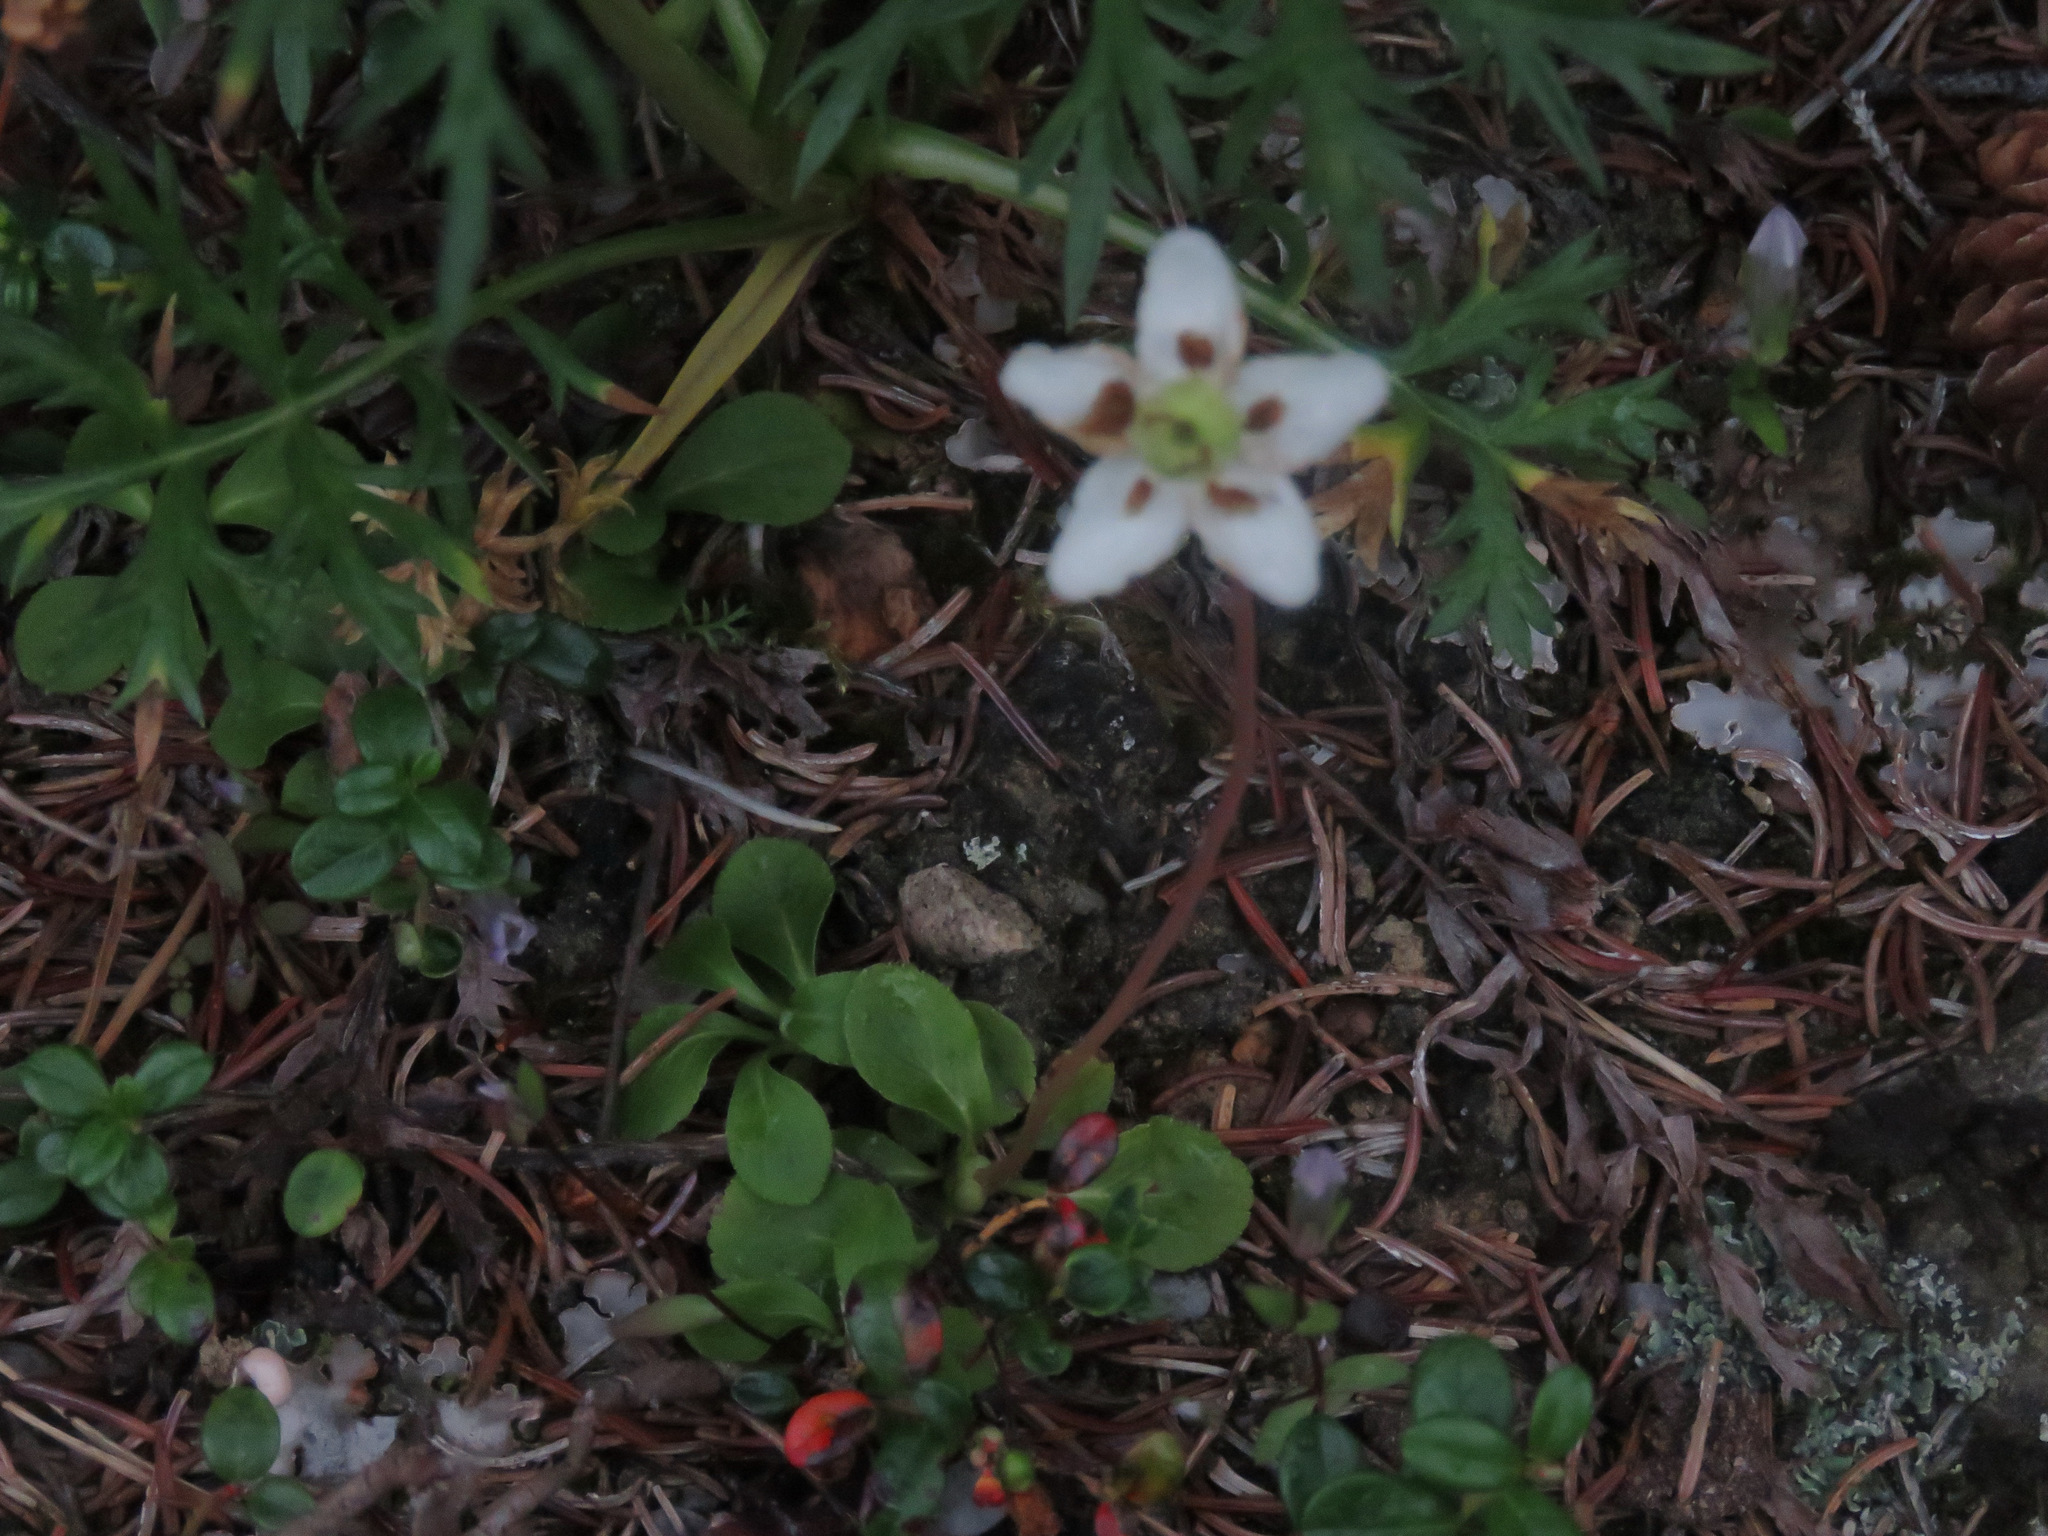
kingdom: Plantae
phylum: Tracheophyta
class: Magnoliopsida
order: Ericales
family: Ericaceae
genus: Moneses
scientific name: Moneses uniflora
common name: One-flowered wintergreen
